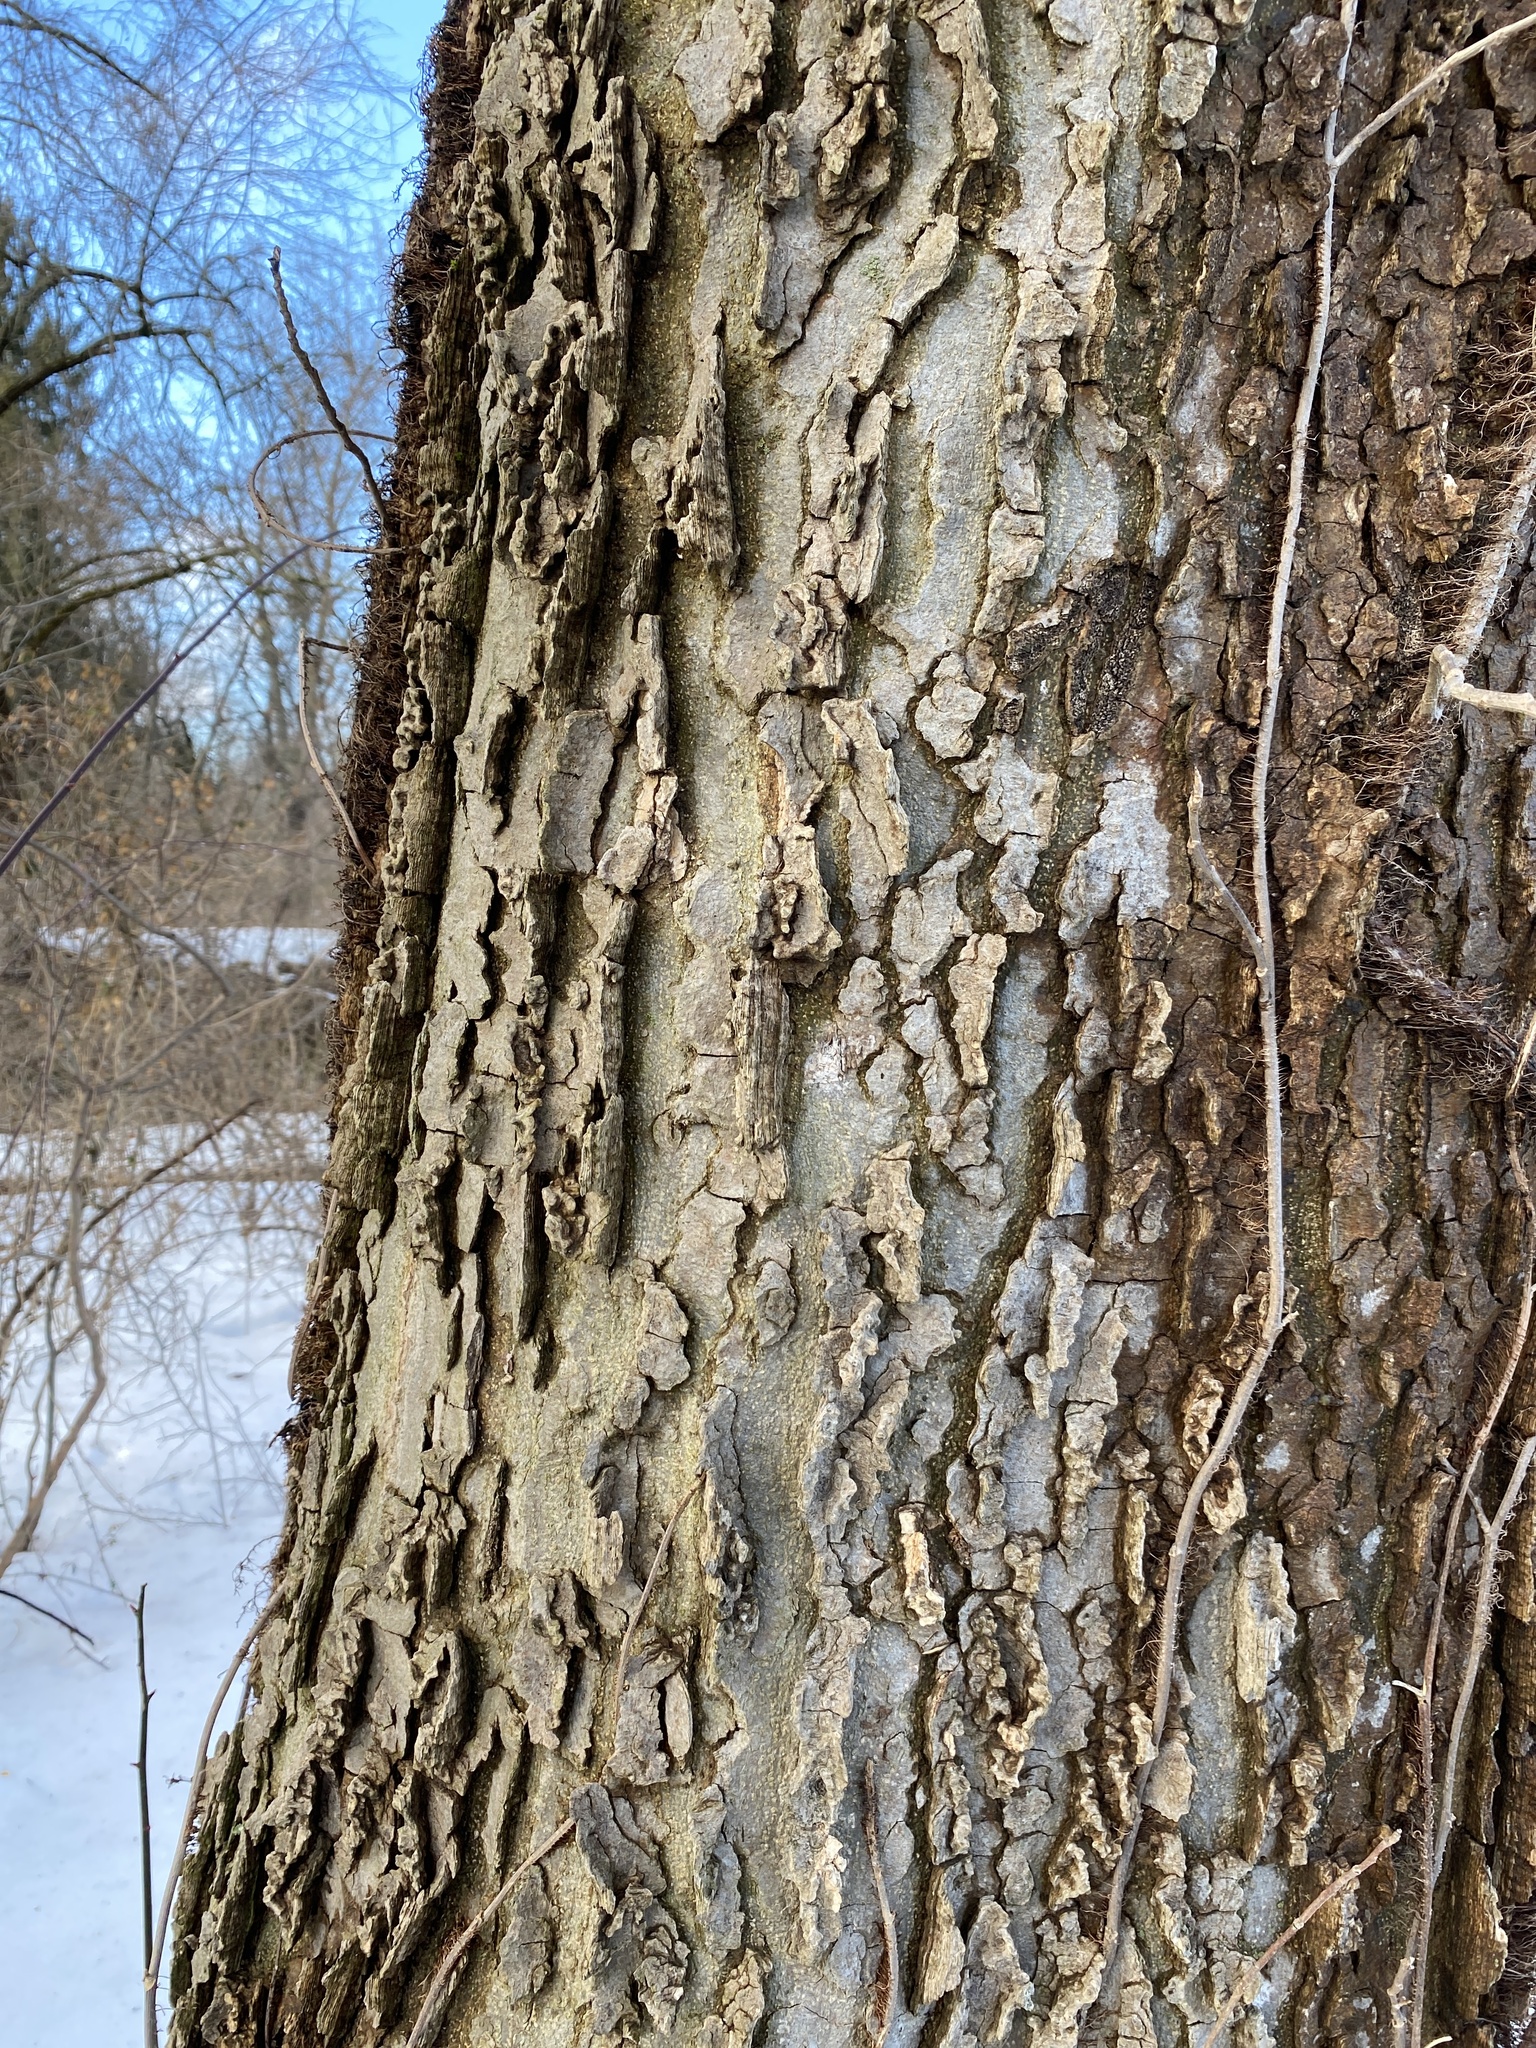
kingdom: Plantae
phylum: Tracheophyta
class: Magnoliopsida
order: Rosales
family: Cannabaceae
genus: Celtis
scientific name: Celtis occidentalis
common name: Common hackberry
